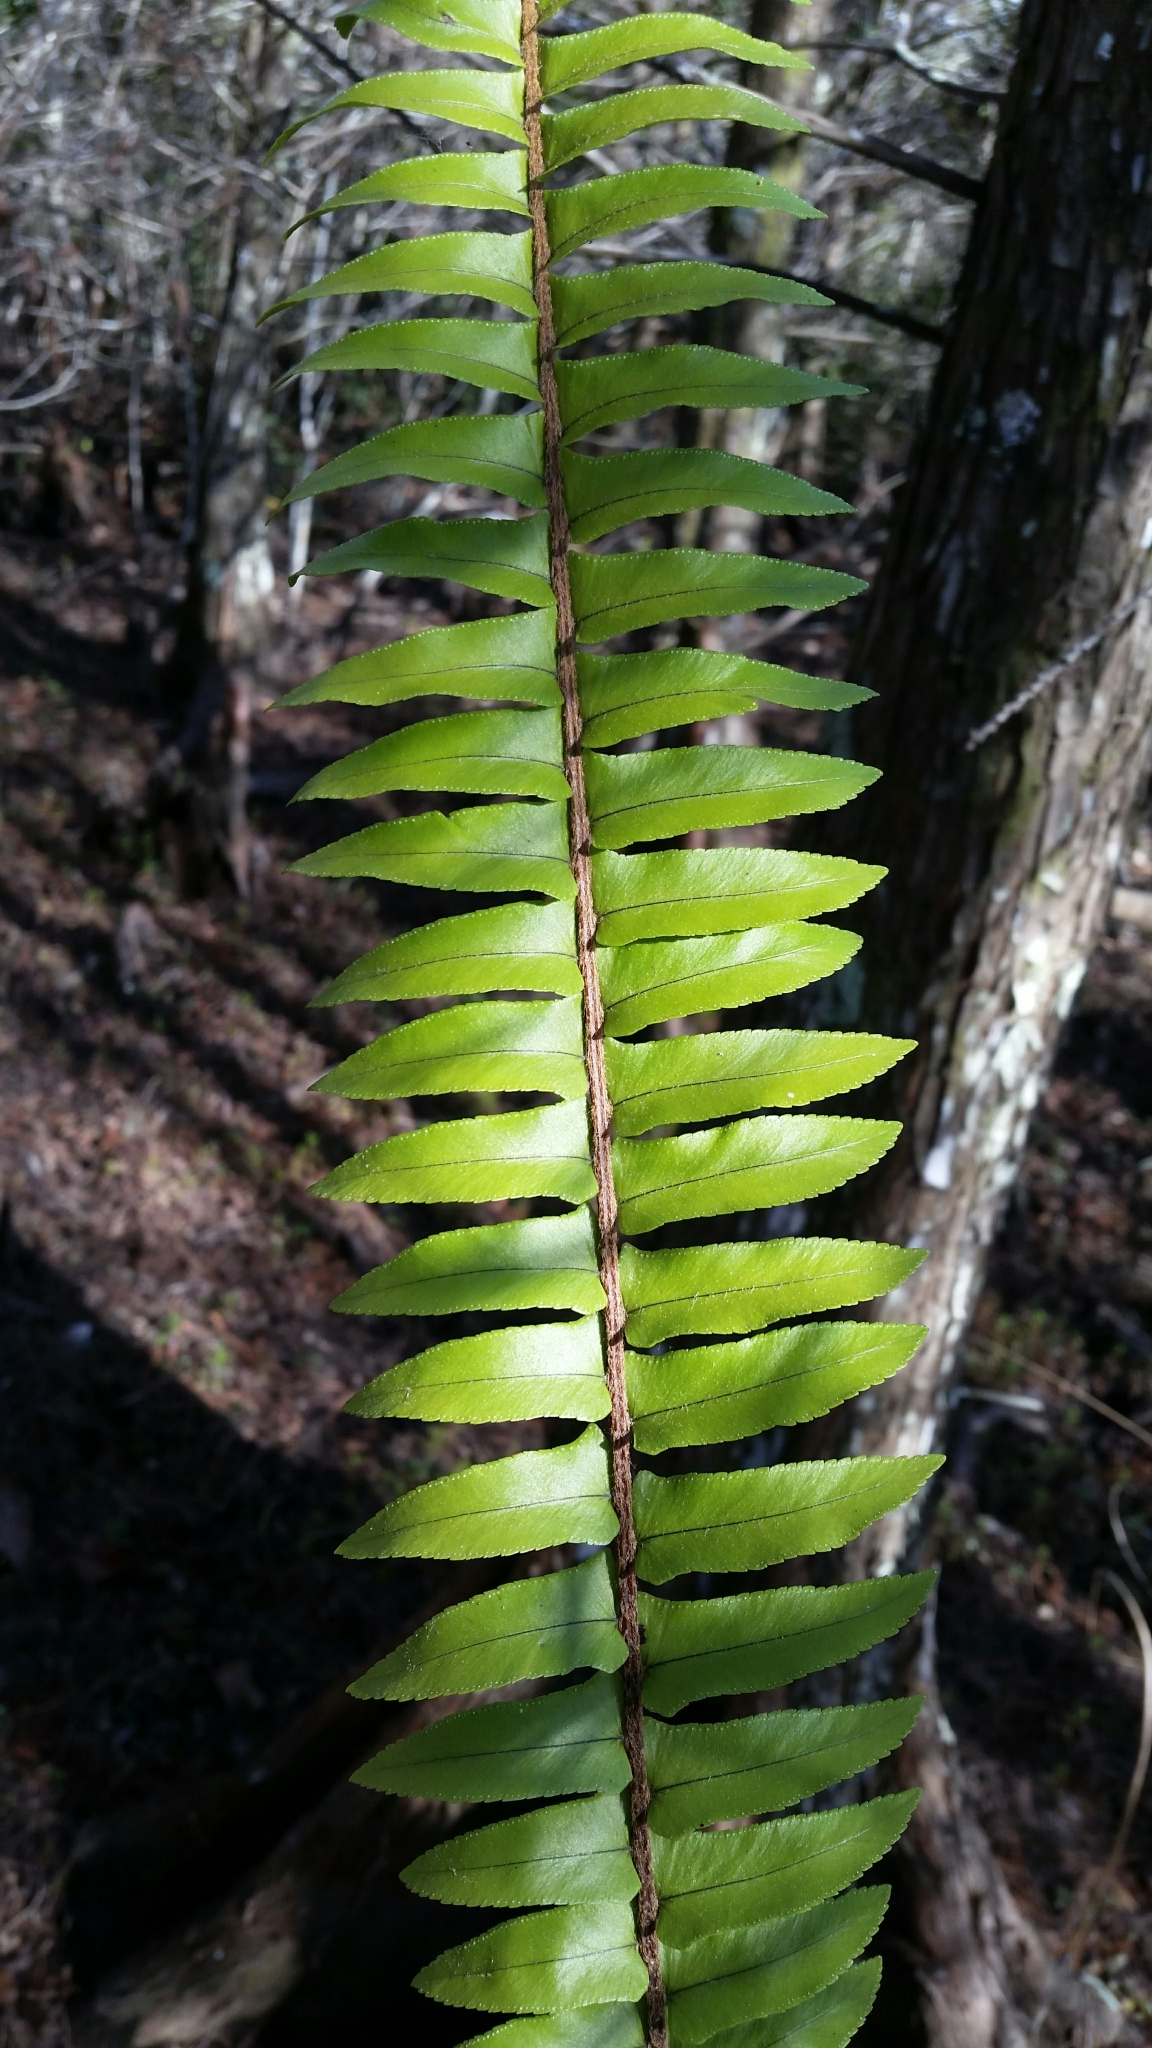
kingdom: Plantae
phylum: Tracheophyta
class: Polypodiopsida
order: Polypodiales
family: Nephrolepidaceae
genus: Nephrolepis
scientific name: Nephrolepis exaltata
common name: Sword fern
